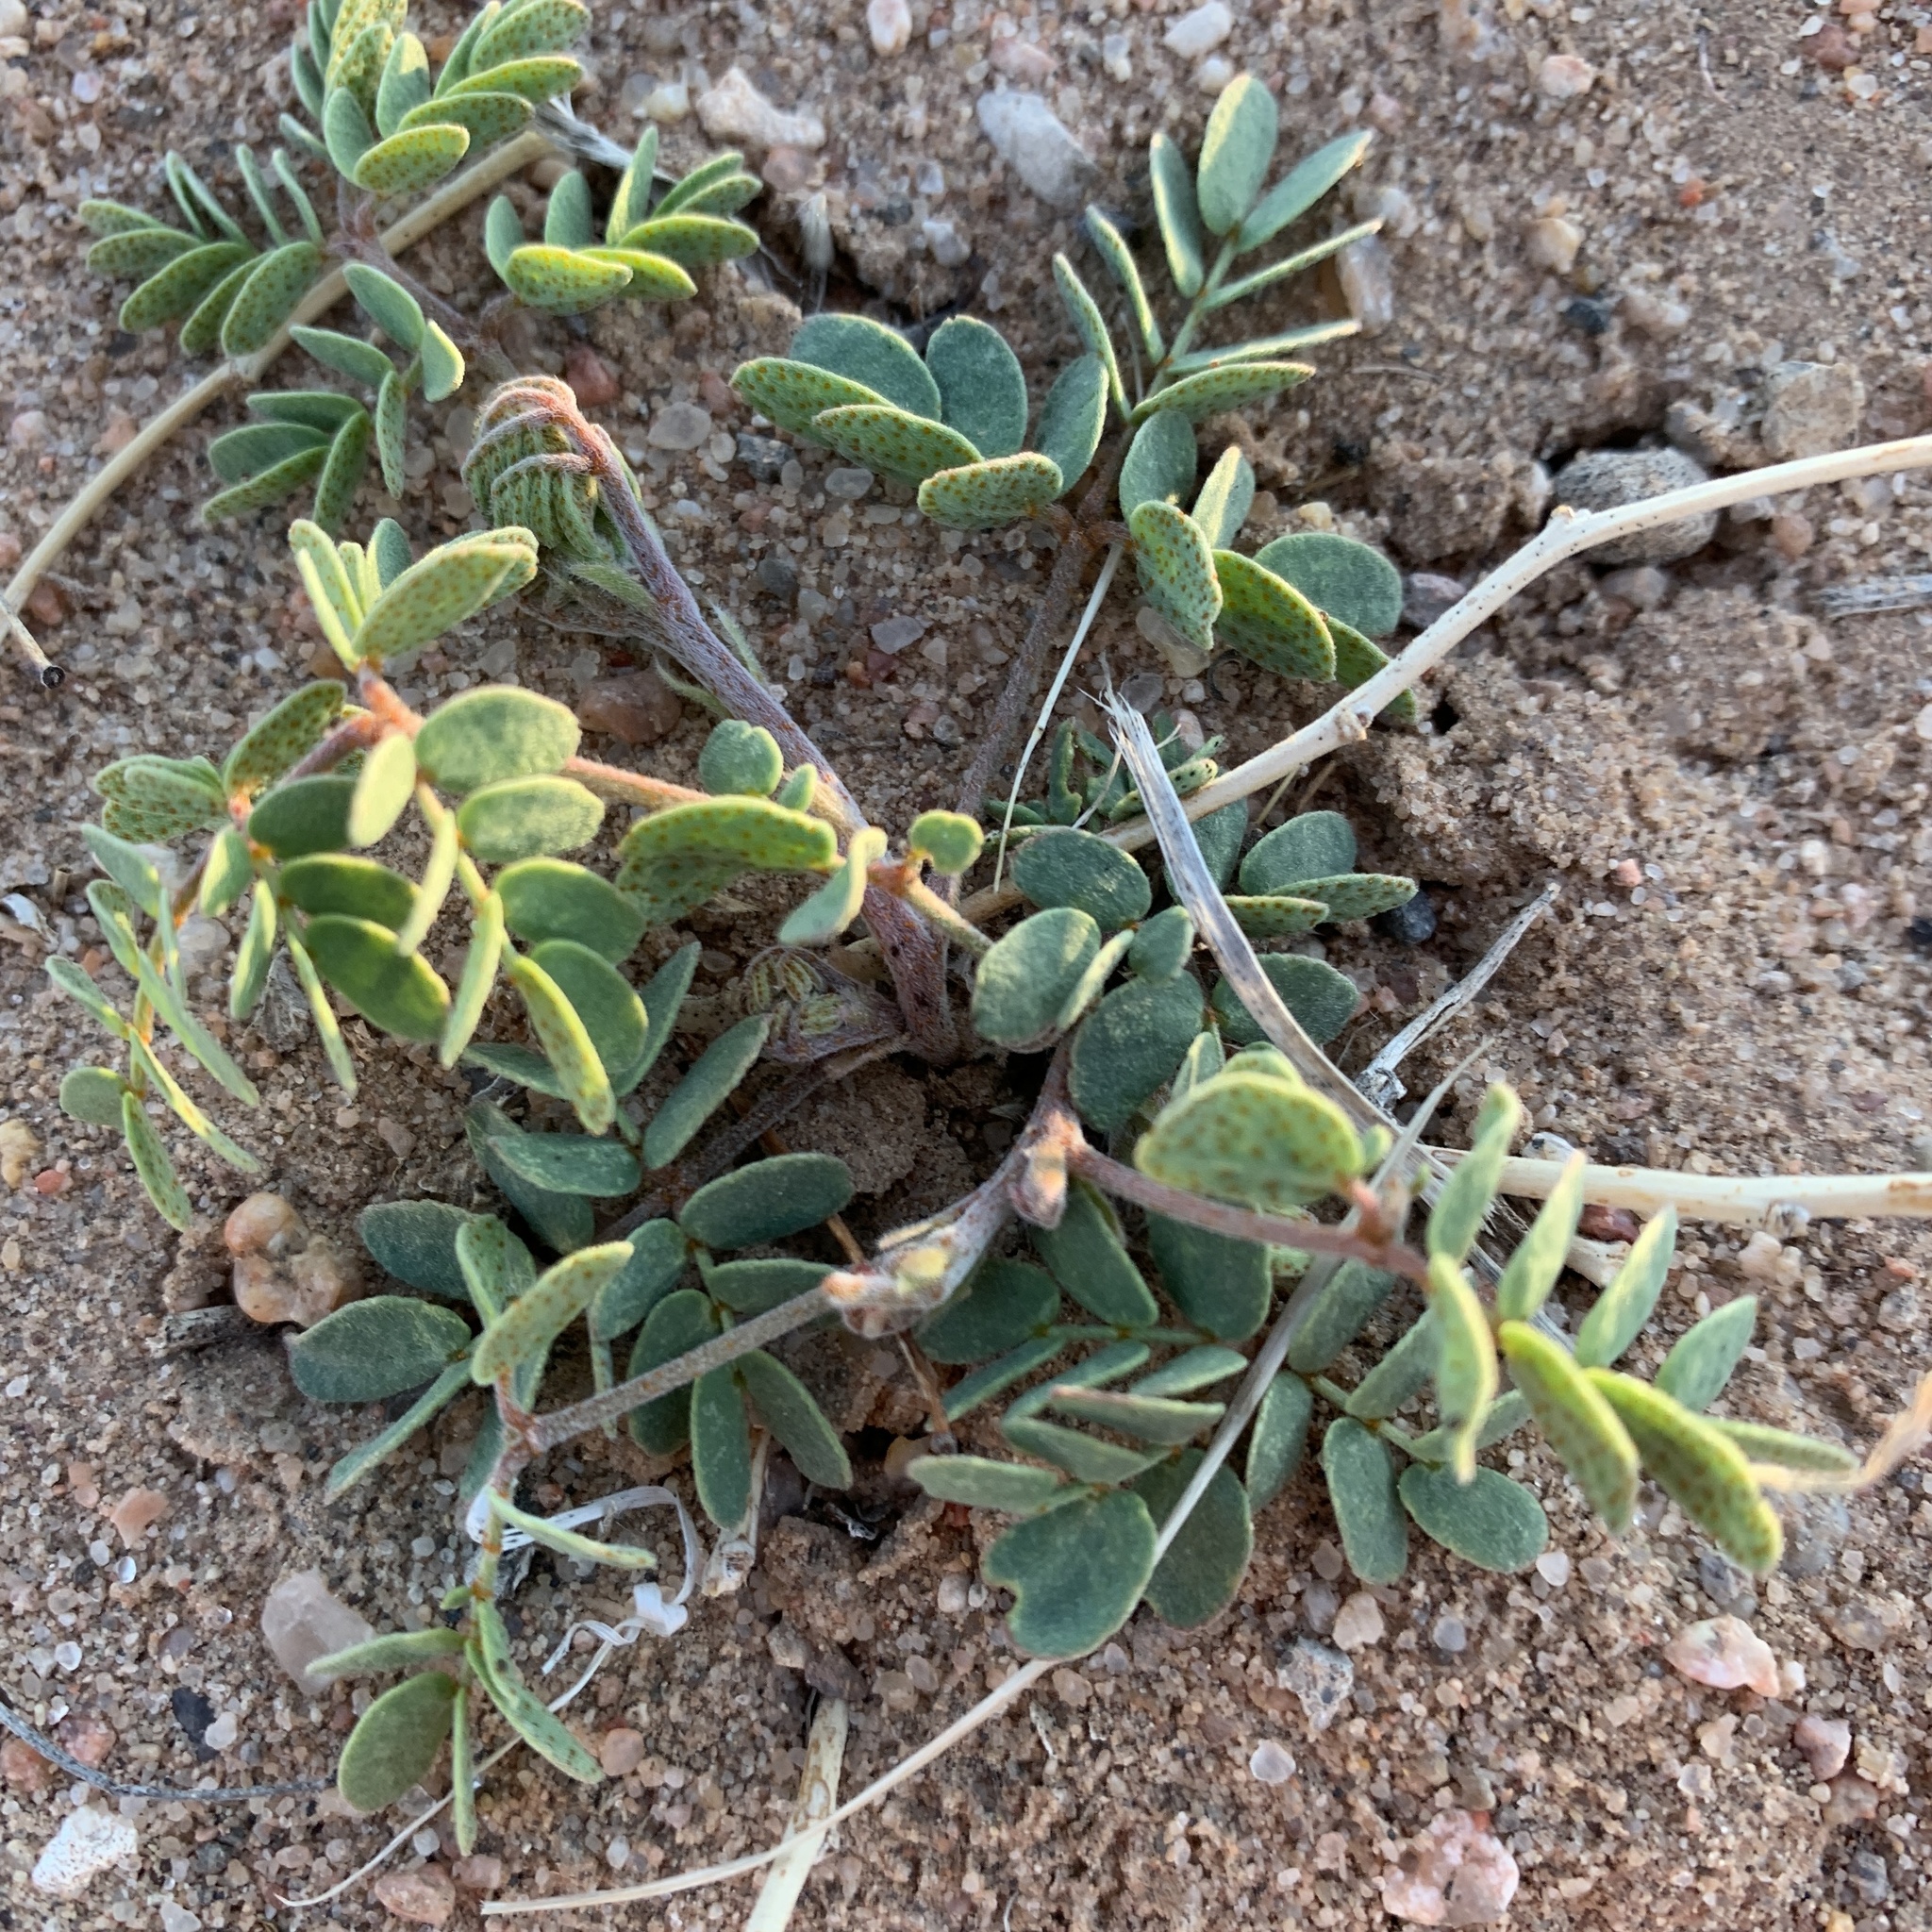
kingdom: Plantae
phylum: Tracheophyta
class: Magnoliopsida
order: Fabales
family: Fabaceae
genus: Pomaria
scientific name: Pomaria jamesii
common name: James' caesalpinia
